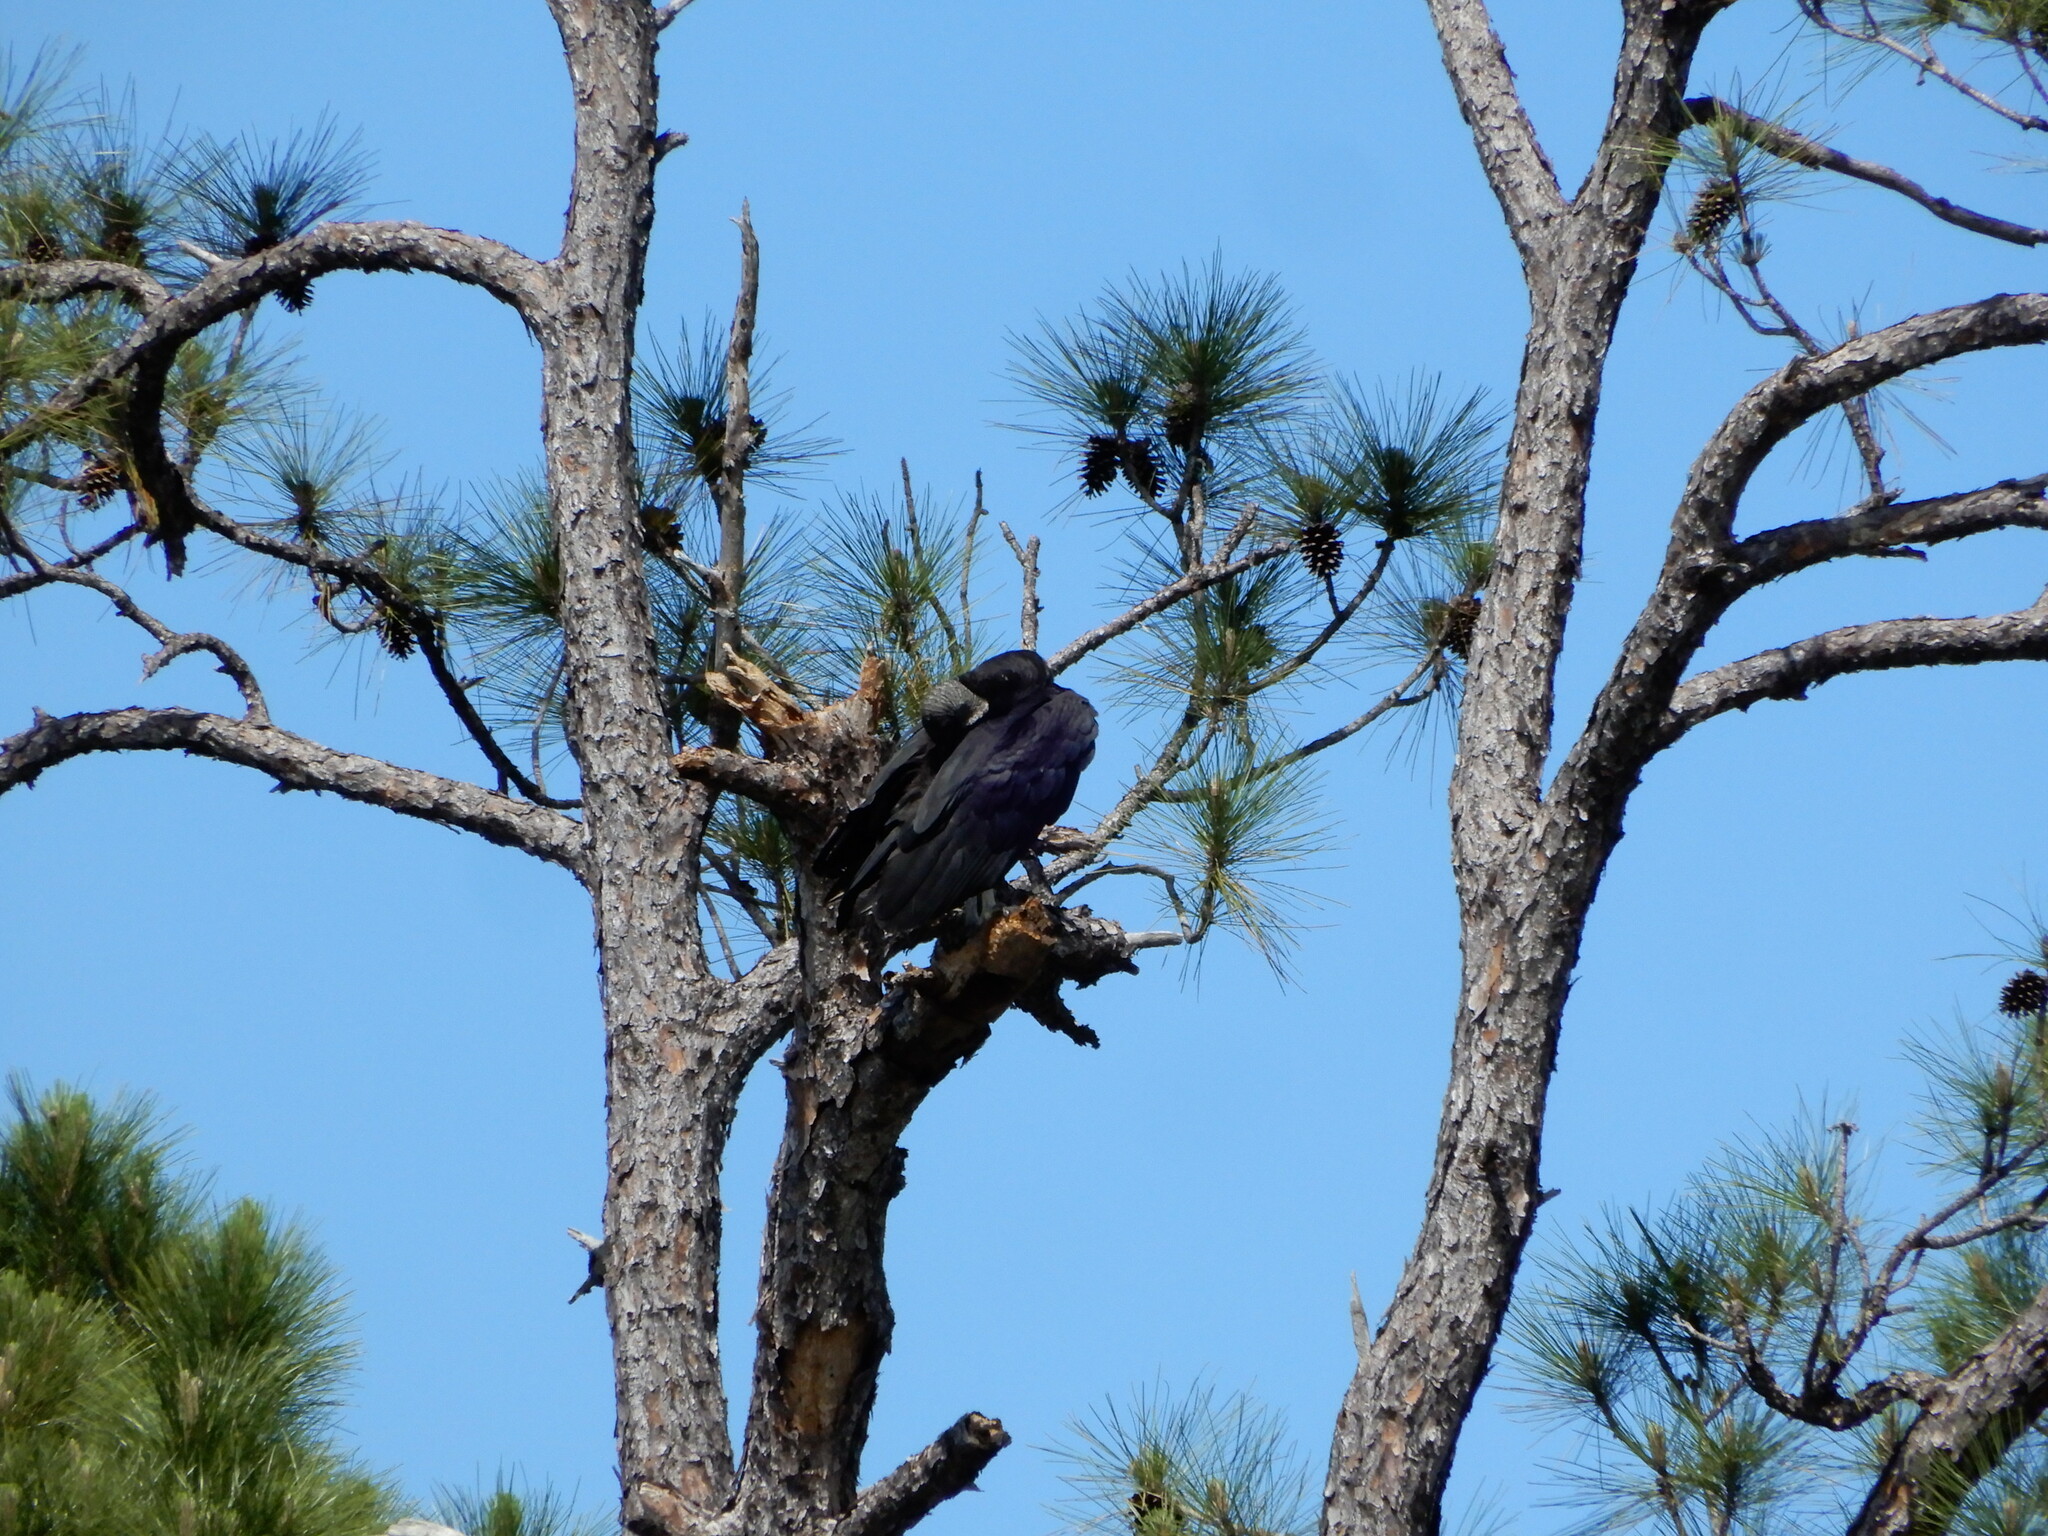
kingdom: Animalia
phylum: Chordata
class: Aves
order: Accipitriformes
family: Cathartidae
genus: Coragyps
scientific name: Coragyps atratus
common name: Black vulture
